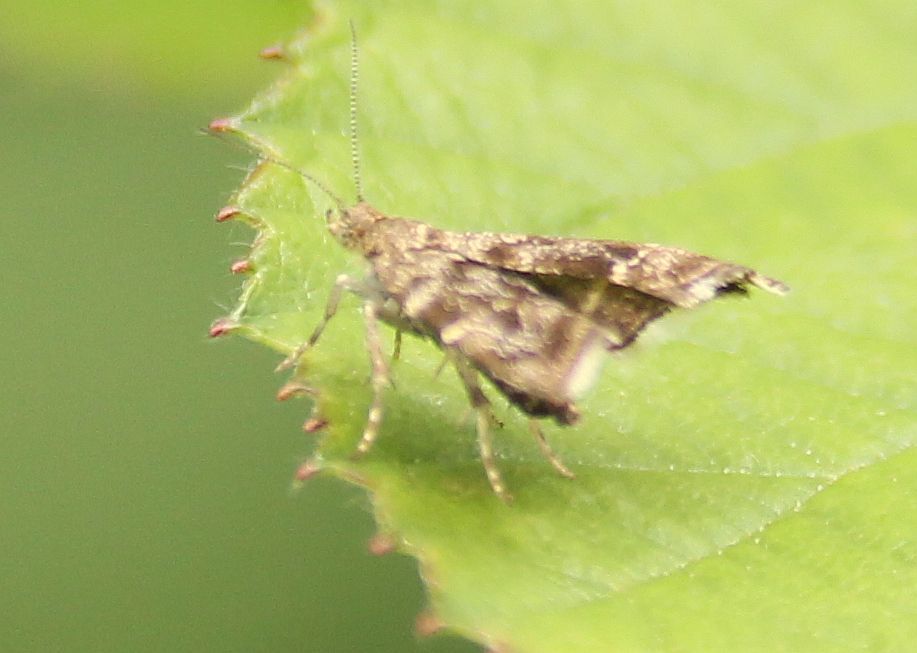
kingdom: Animalia
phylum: Arthropoda
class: Insecta
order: Lepidoptera
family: Choreutidae
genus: Anthophila
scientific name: Anthophila fabriciana
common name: Nettle-tap
